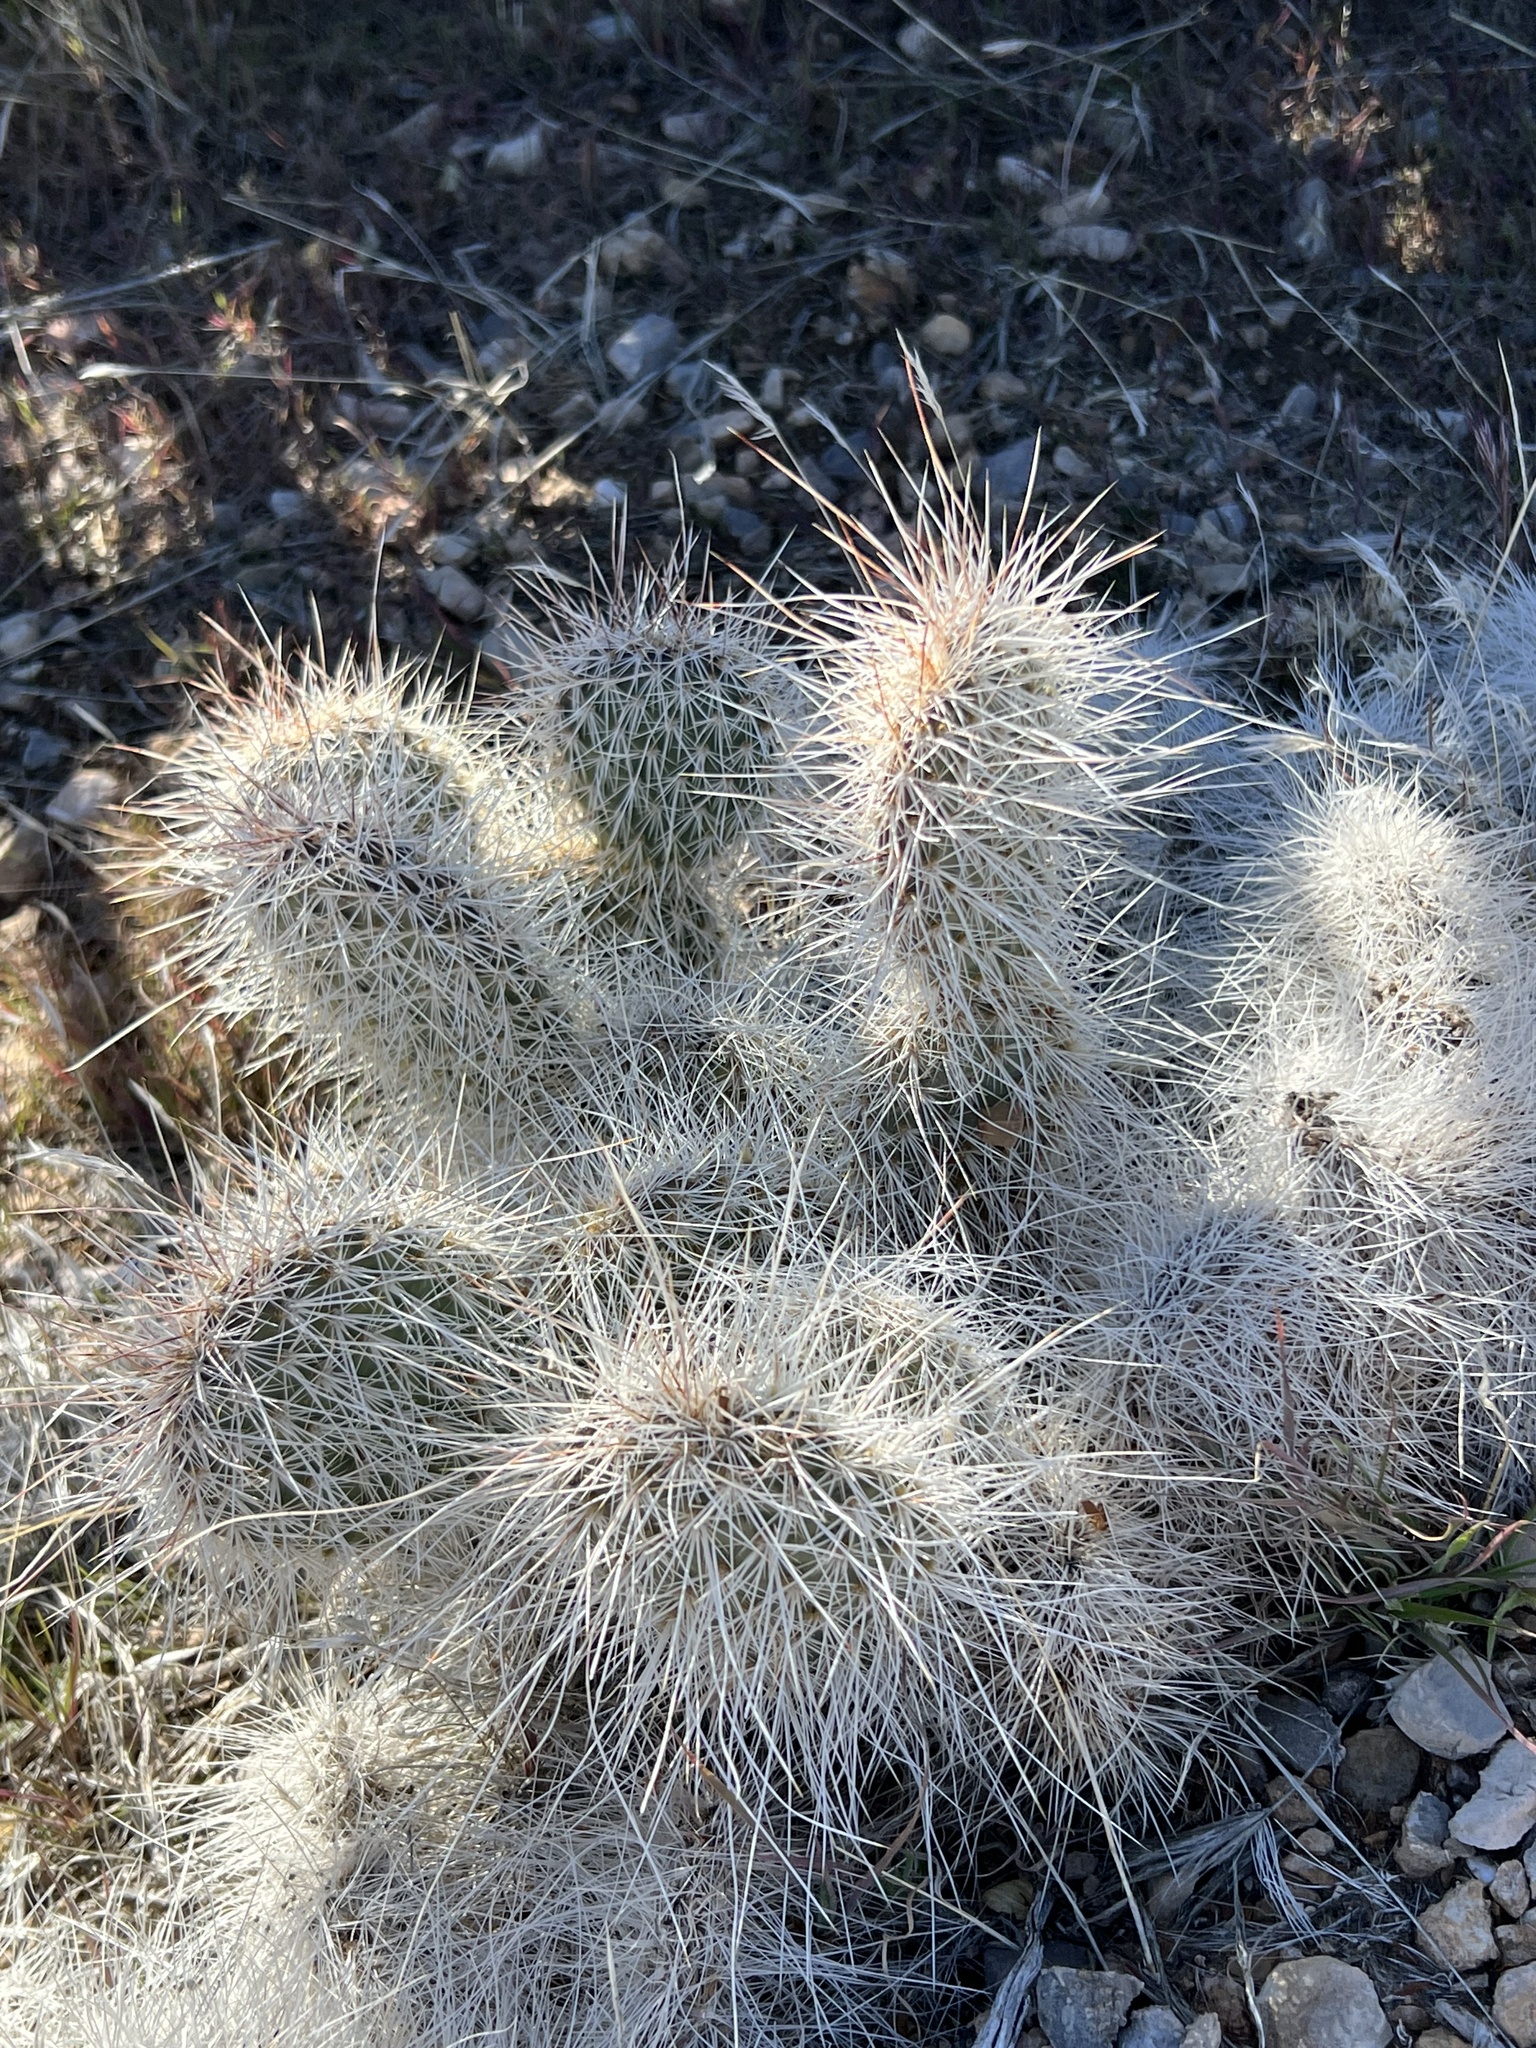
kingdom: Plantae
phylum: Tracheophyta
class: Magnoliopsida
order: Caryophyllales
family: Cactaceae
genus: Opuntia
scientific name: Opuntia polyacantha
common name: Plains prickly-pear
